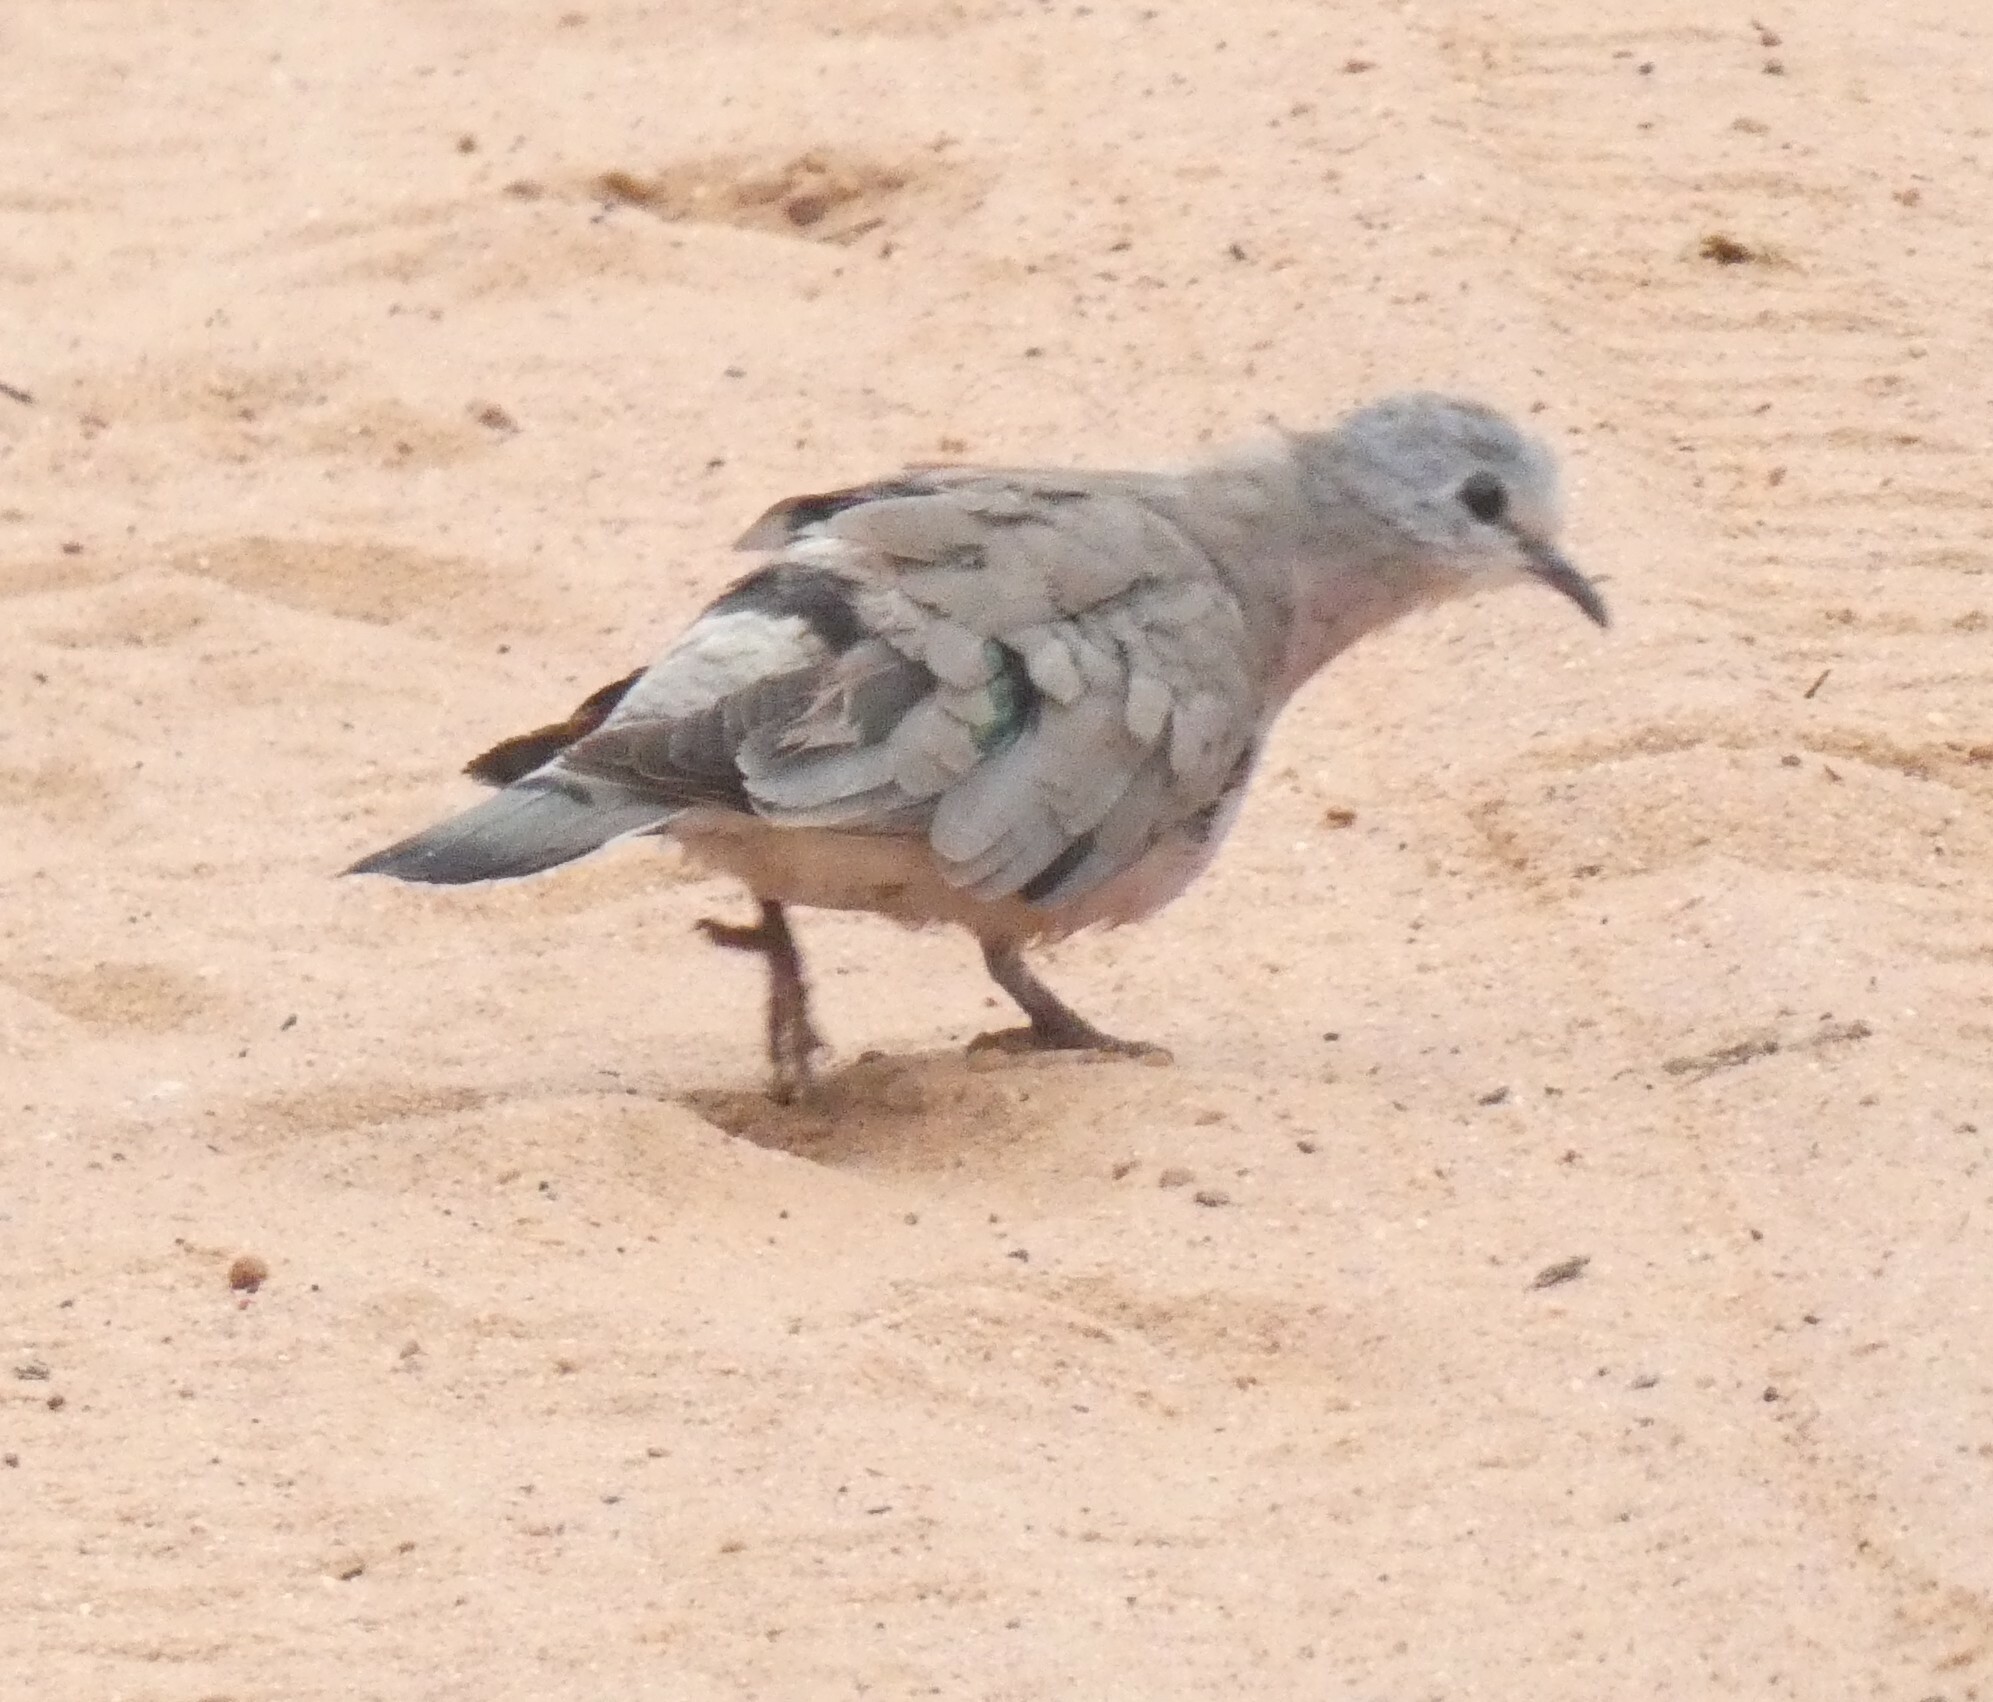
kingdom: Animalia
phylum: Chordata
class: Aves
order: Columbiformes
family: Columbidae
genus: Turtur
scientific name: Turtur chalcospilos
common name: Emerald-spotted wood dove
